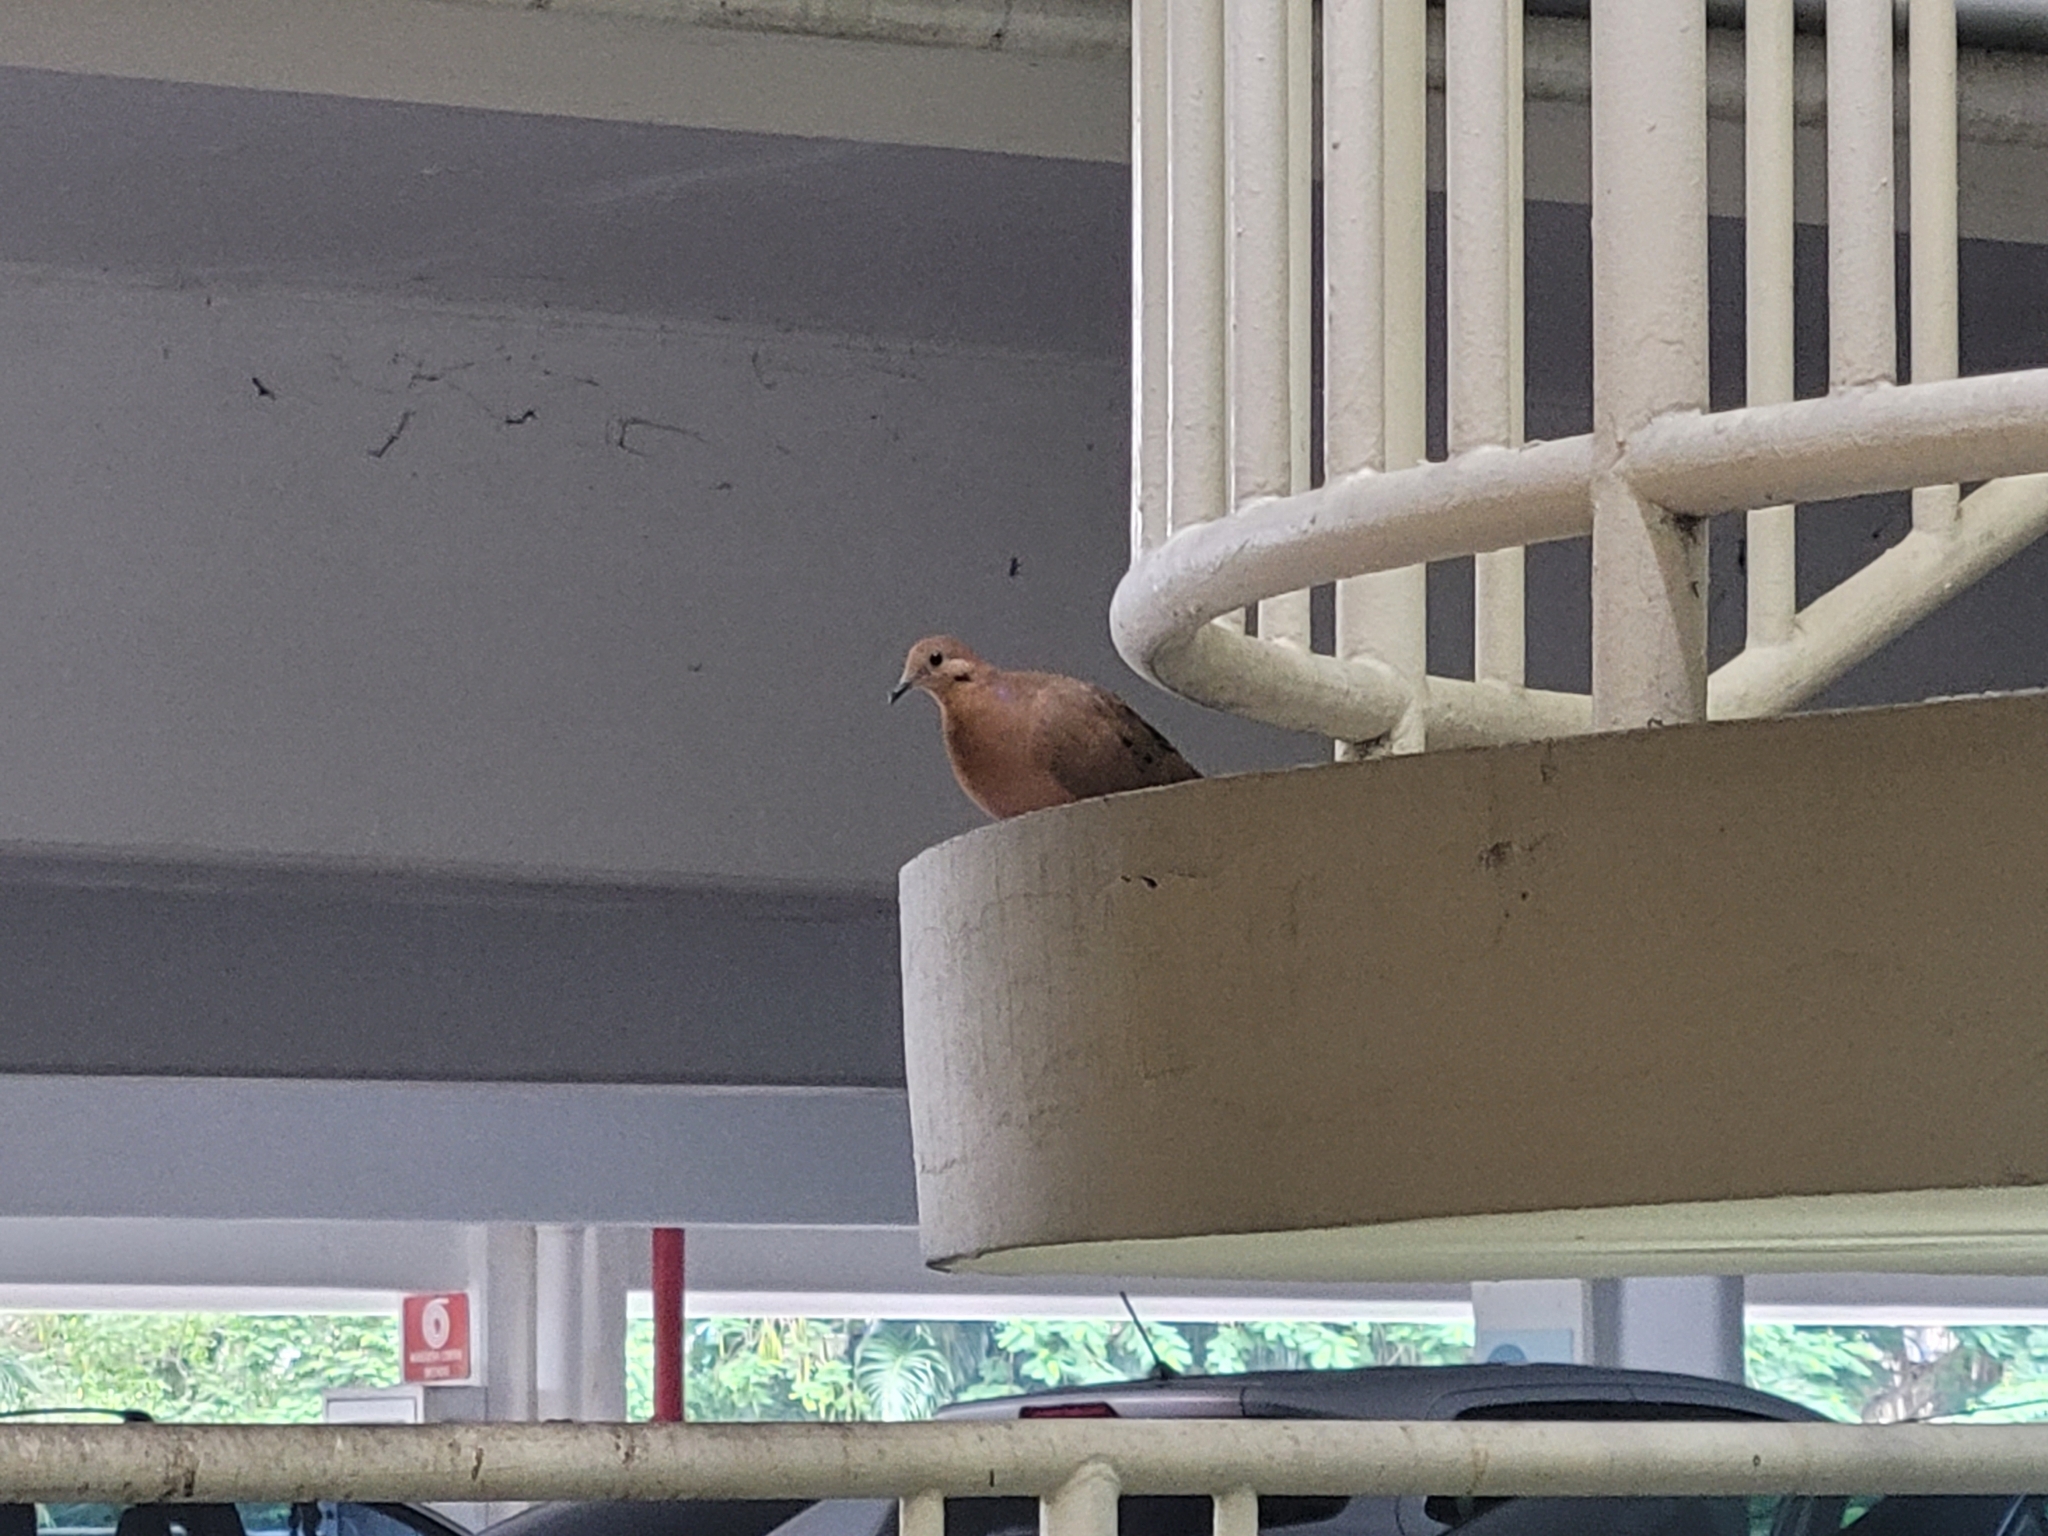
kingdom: Animalia
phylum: Chordata
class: Aves
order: Columbiformes
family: Columbidae
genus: Zenaida
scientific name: Zenaida aurita
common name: Zenaida dove
